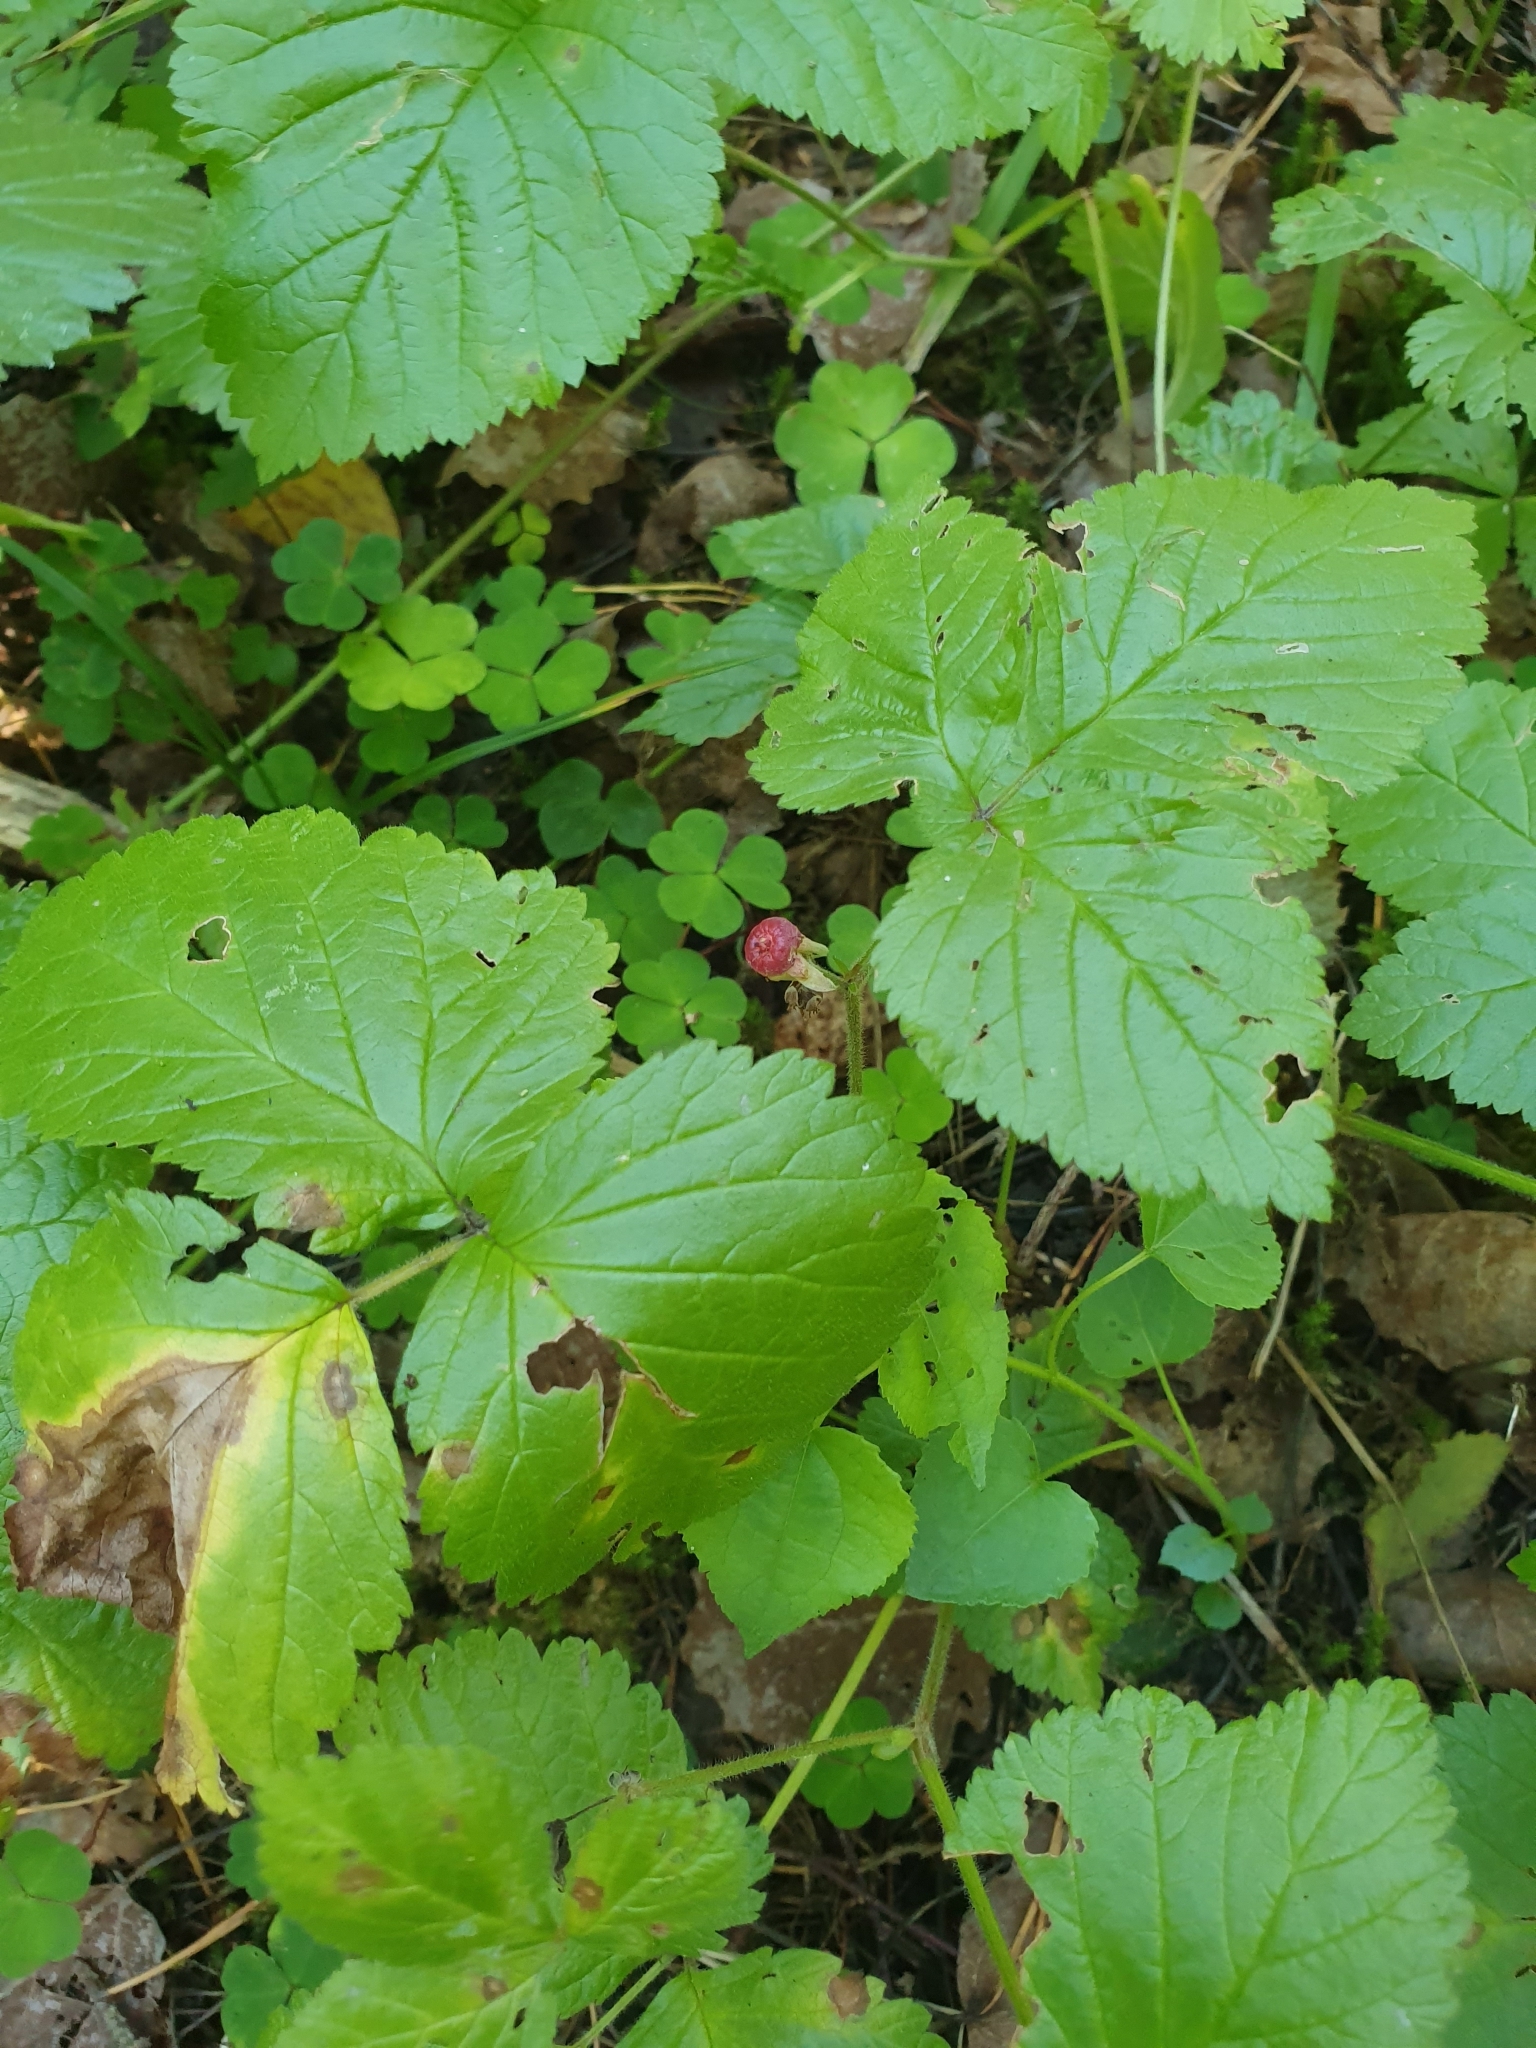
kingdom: Plantae
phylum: Tracheophyta
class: Magnoliopsida
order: Rosales
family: Rosaceae
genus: Rubus
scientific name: Rubus saxatilis
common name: Stone bramble
